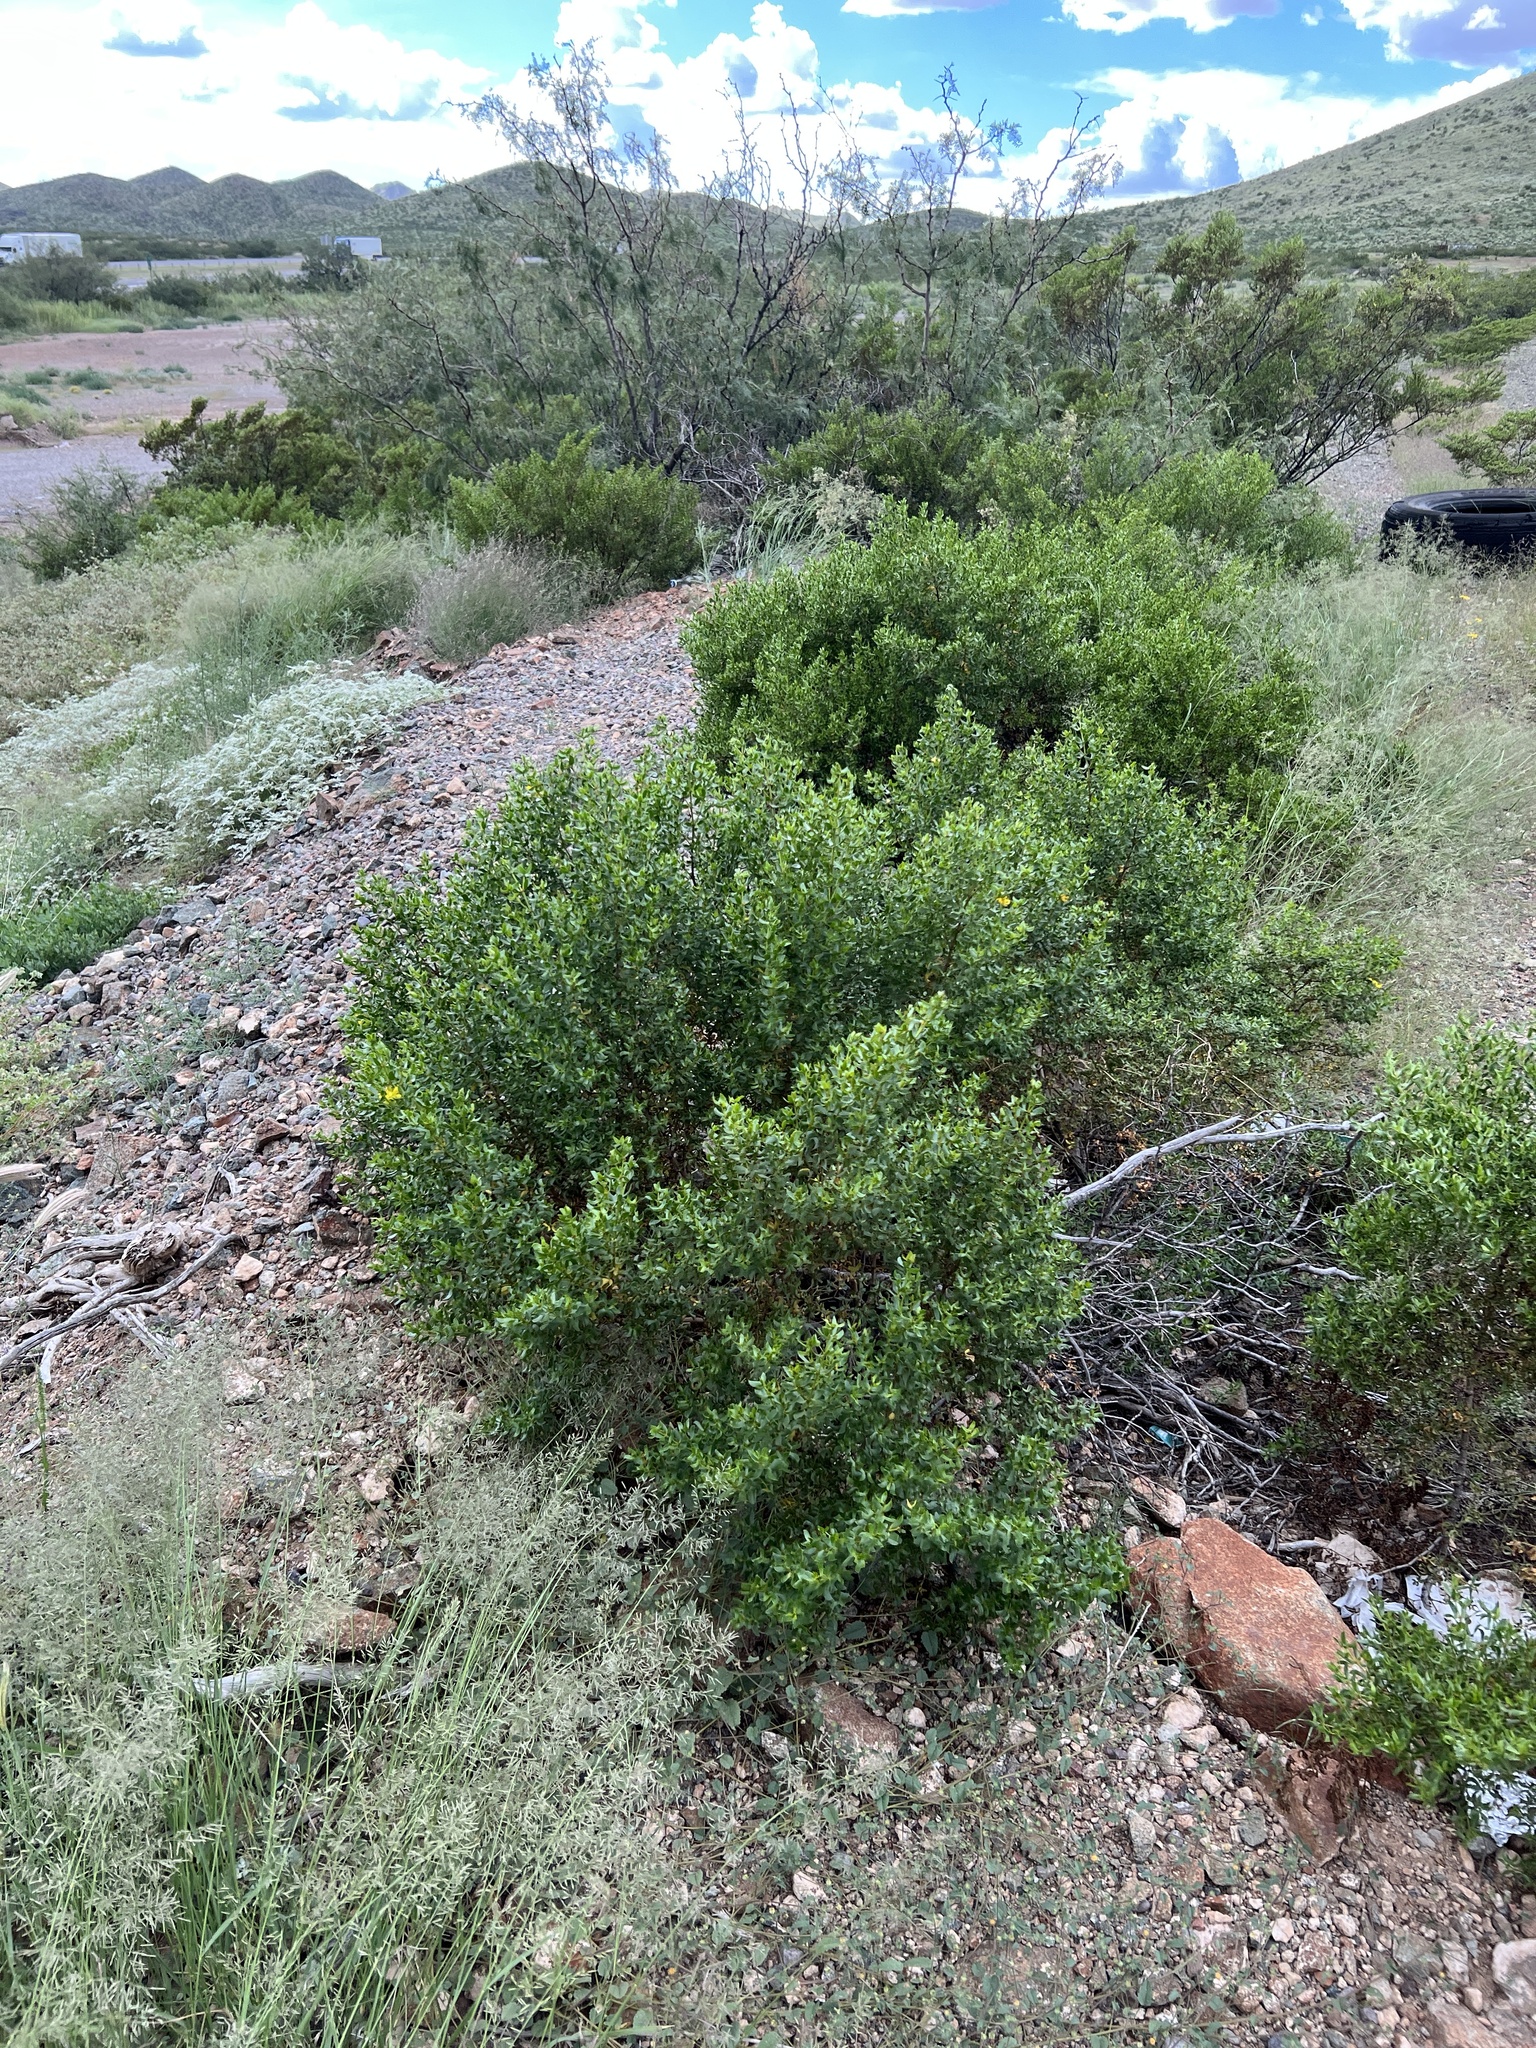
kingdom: Plantae
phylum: Tracheophyta
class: Magnoliopsida
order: Zygophyllales
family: Zygophyllaceae
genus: Larrea
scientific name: Larrea tridentata
